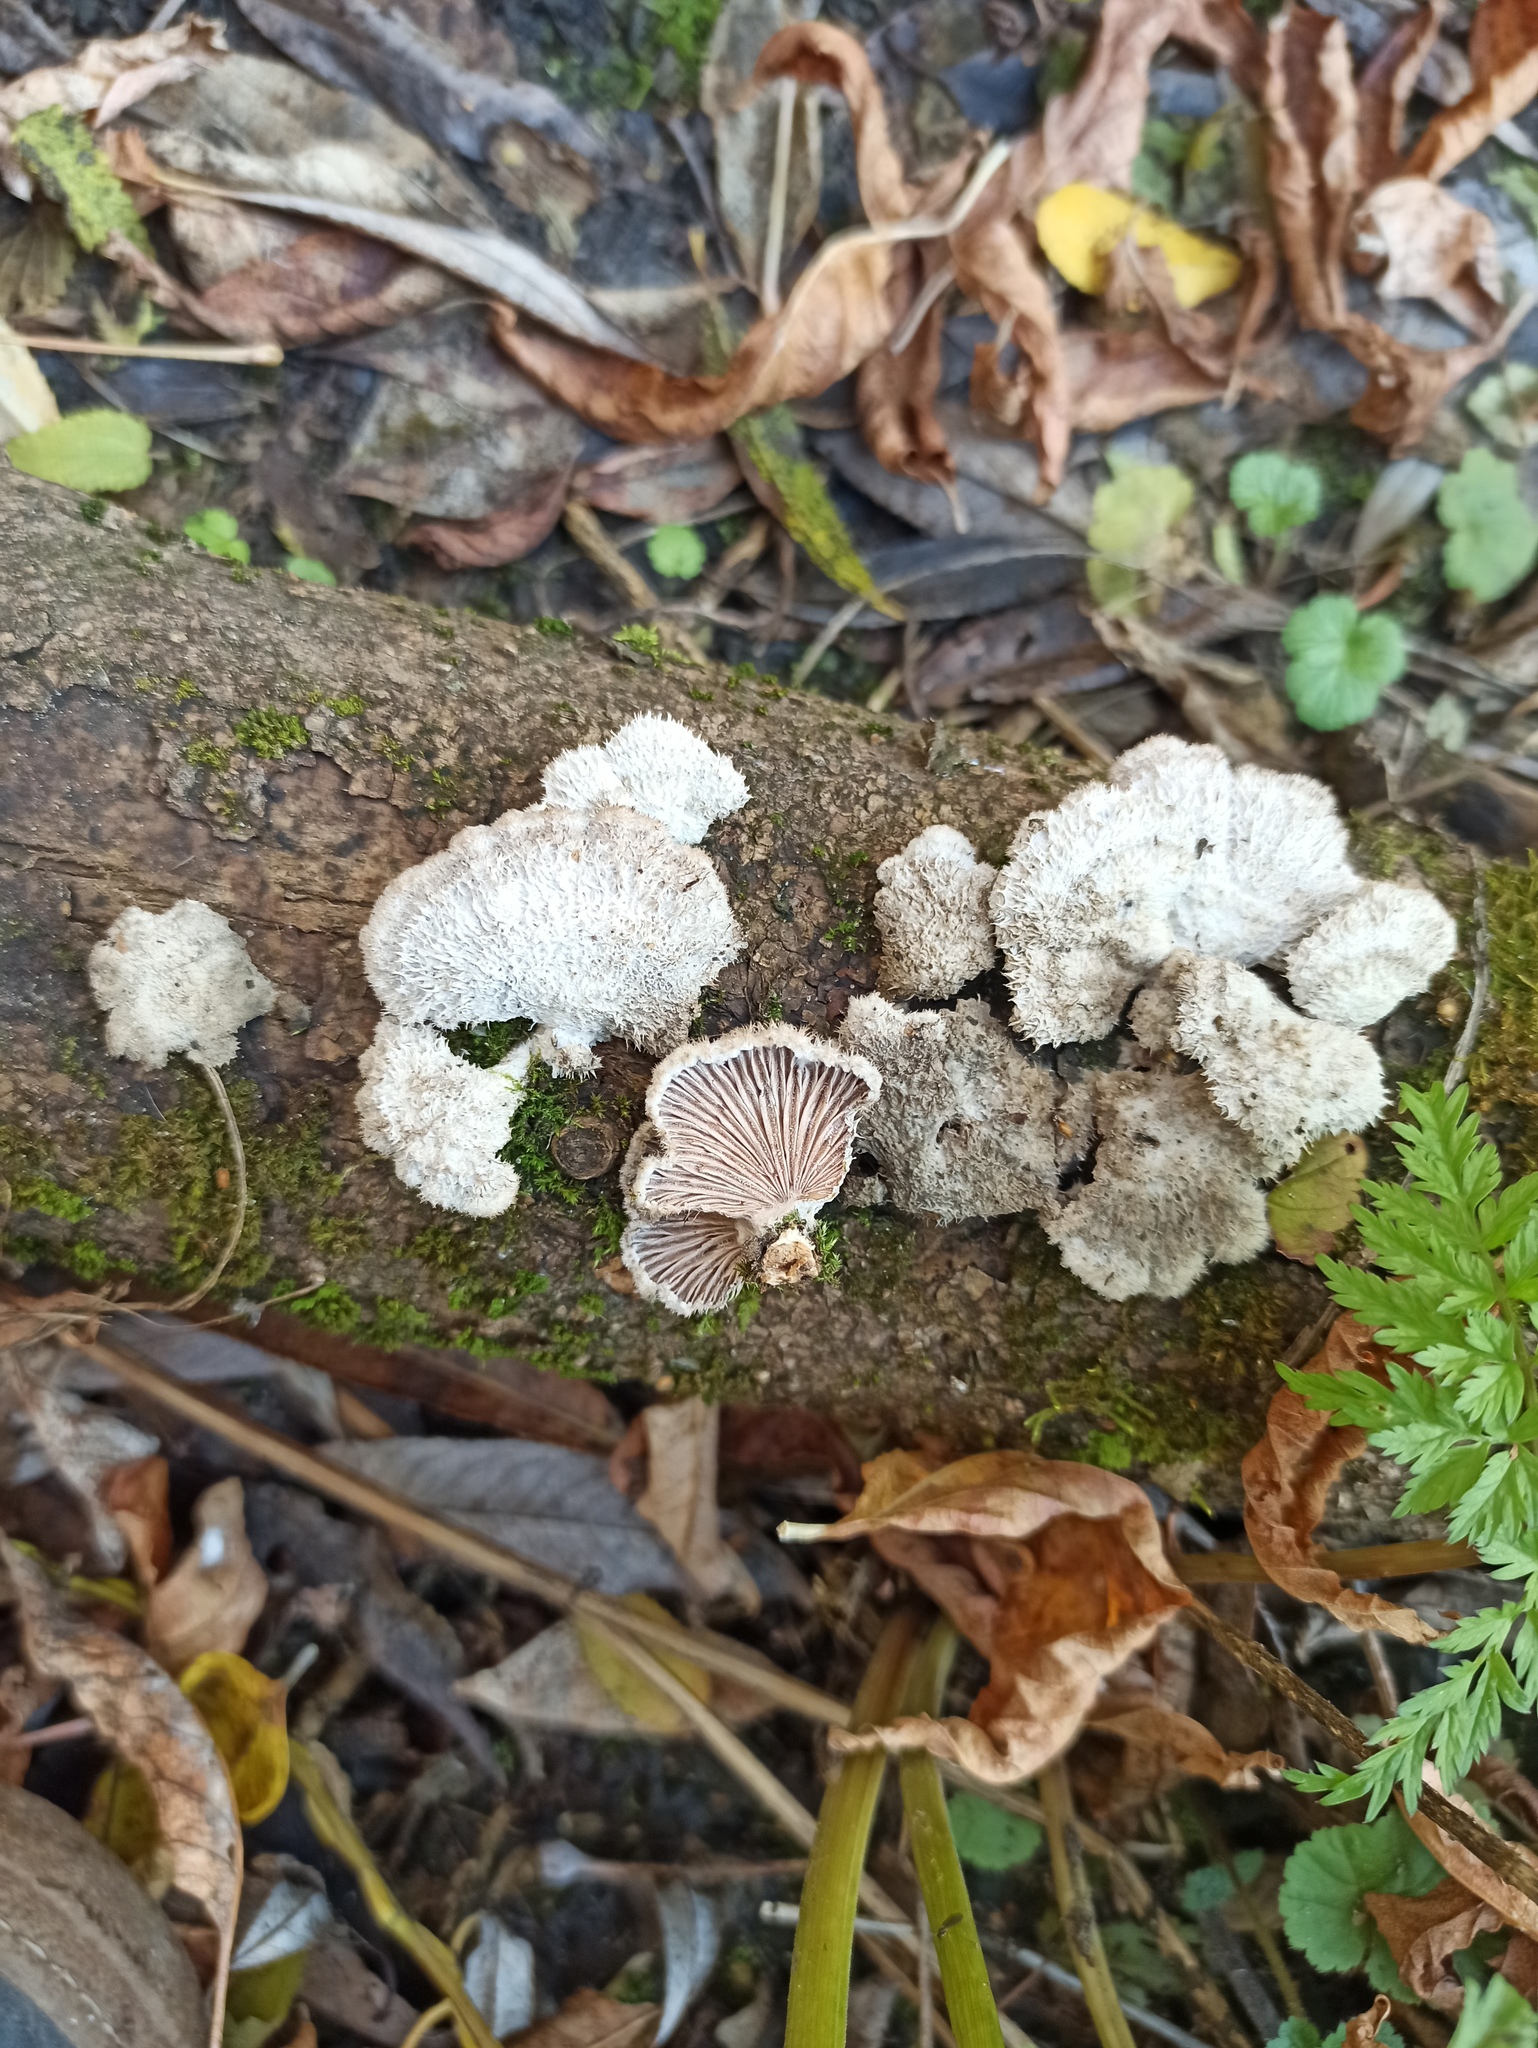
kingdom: Fungi
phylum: Basidiomycota
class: Agaricomycetes
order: Agaricales
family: Schizophyllaceae
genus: Schizophyllum
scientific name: Schizophyllum commune
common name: Common porecrust
